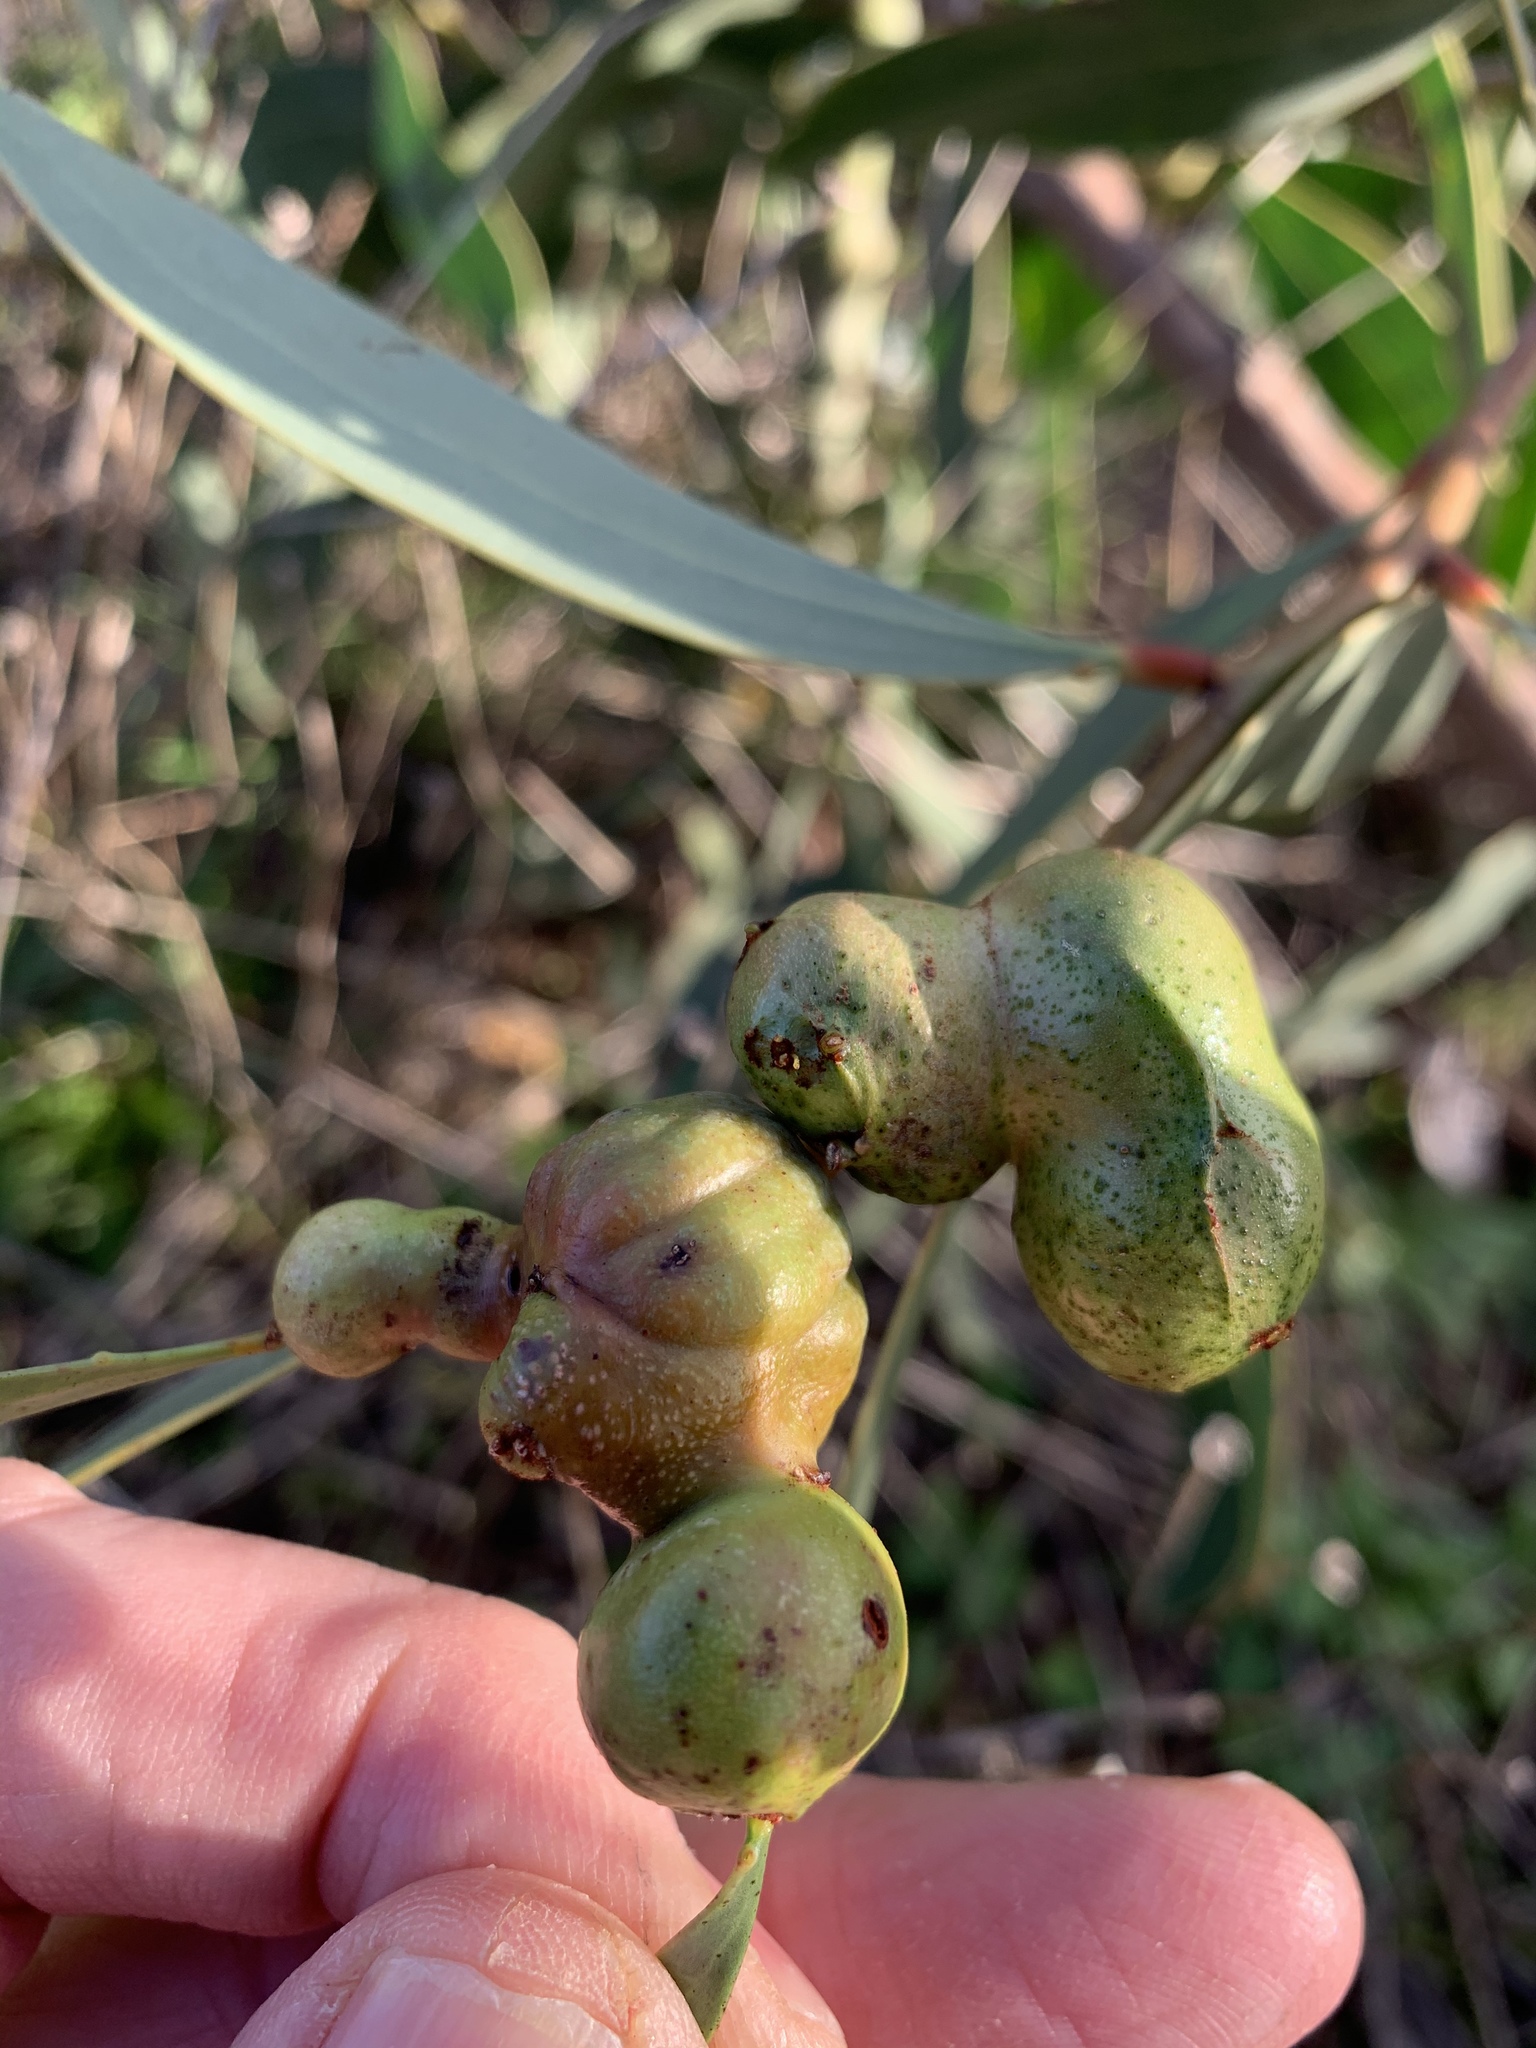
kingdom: Animalia
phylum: Arthropoda
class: Insecta
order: Hymenoptera
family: Pteromalidae
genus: Trichilogaster
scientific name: Trichilogaster signiventris
